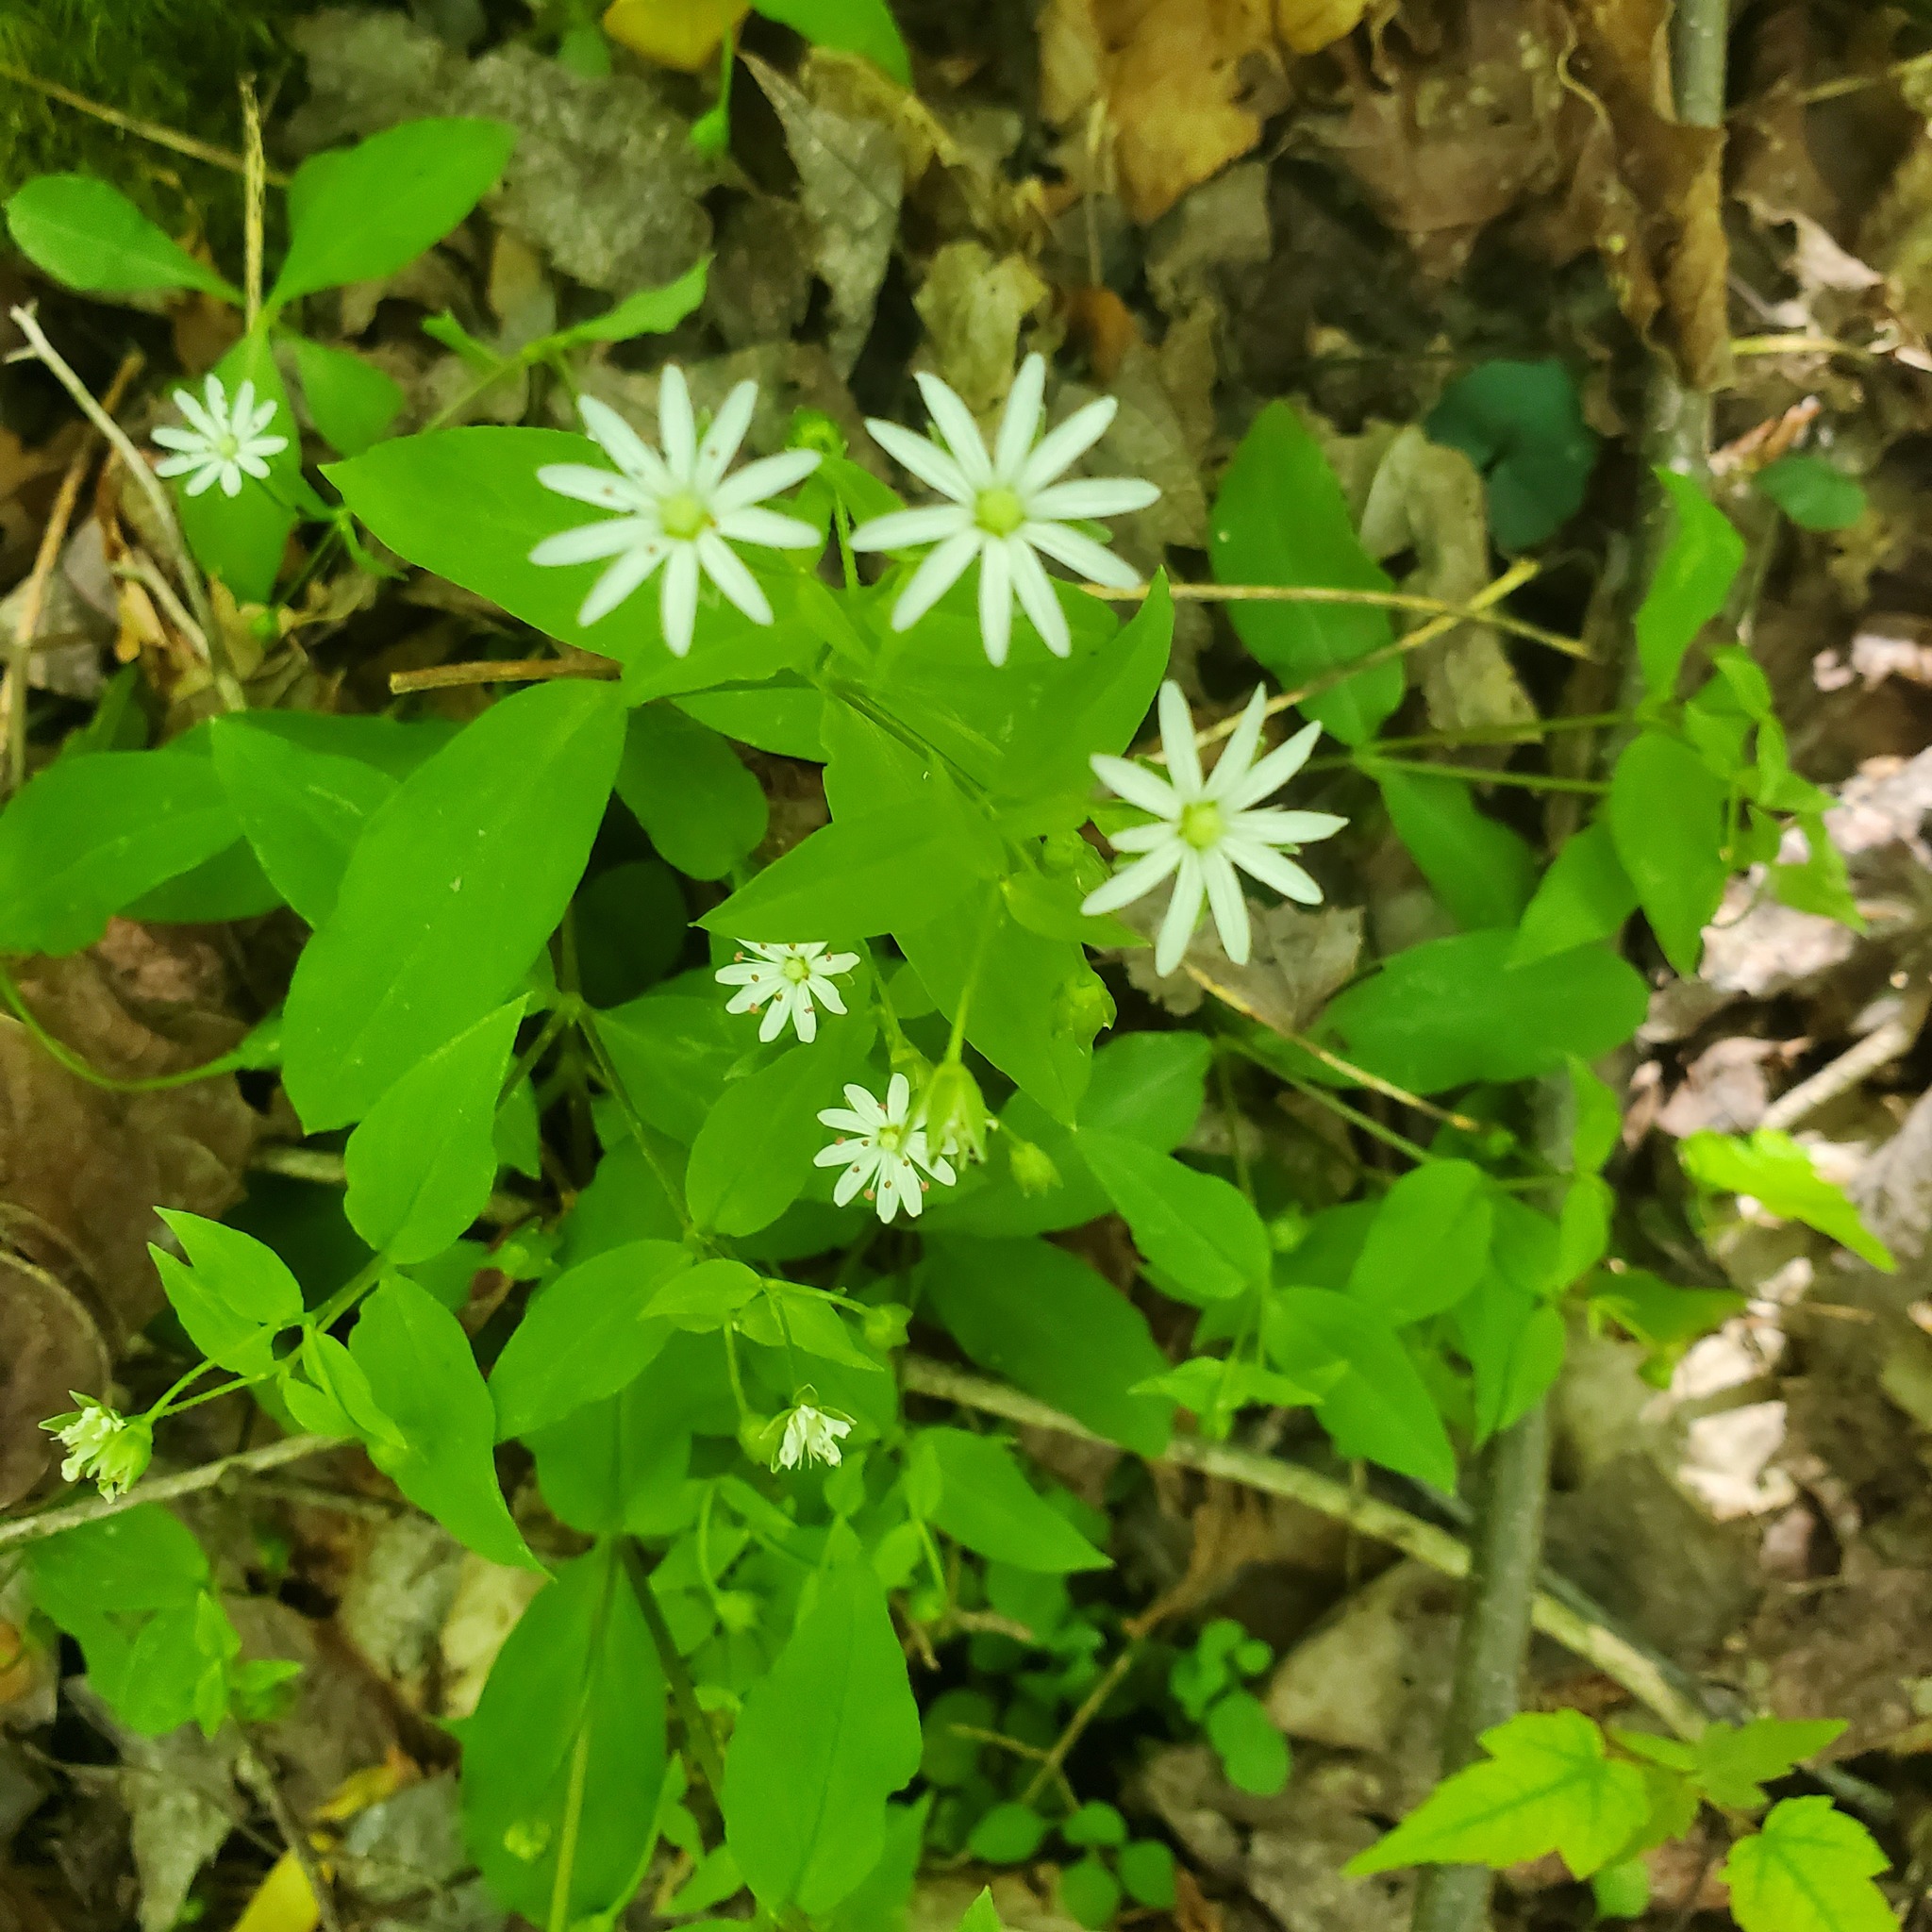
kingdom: Plantae
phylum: Tracheophyta
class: Magnoliopsida
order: Caryophyllales
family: Caryophyllaceae
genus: Stellaria
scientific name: Stellaria pubera
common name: Star chickweed
